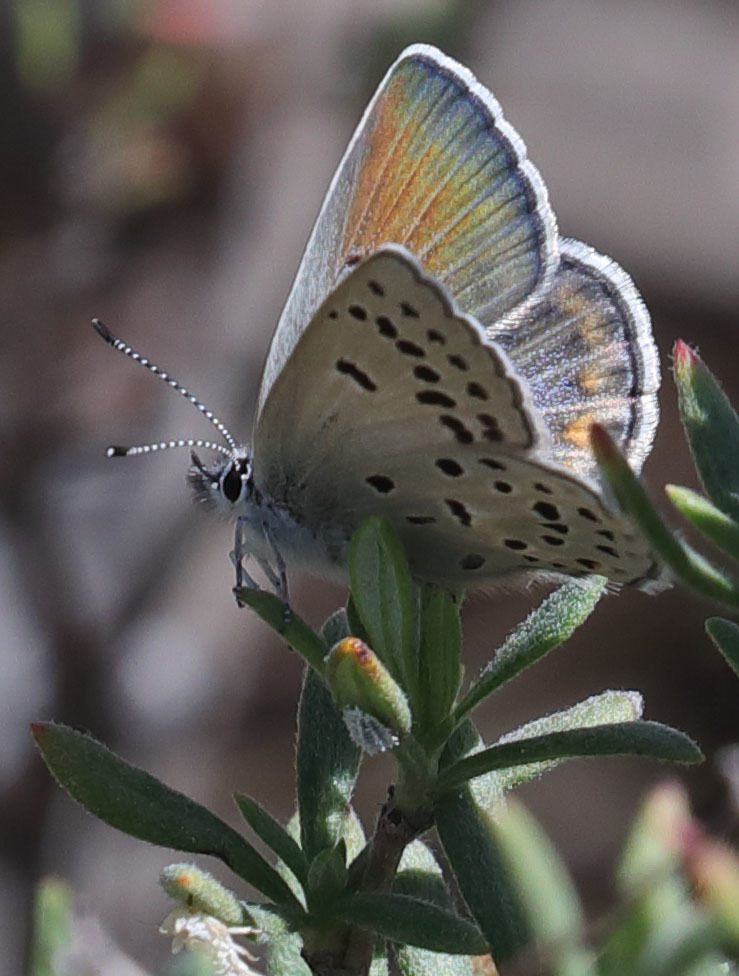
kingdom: Animalia
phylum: Arthropoda
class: Insecta
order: Lepidoptera
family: Lycaenidae
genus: Icaricia
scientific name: Icaricia icarioides
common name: Boisduval's blue
